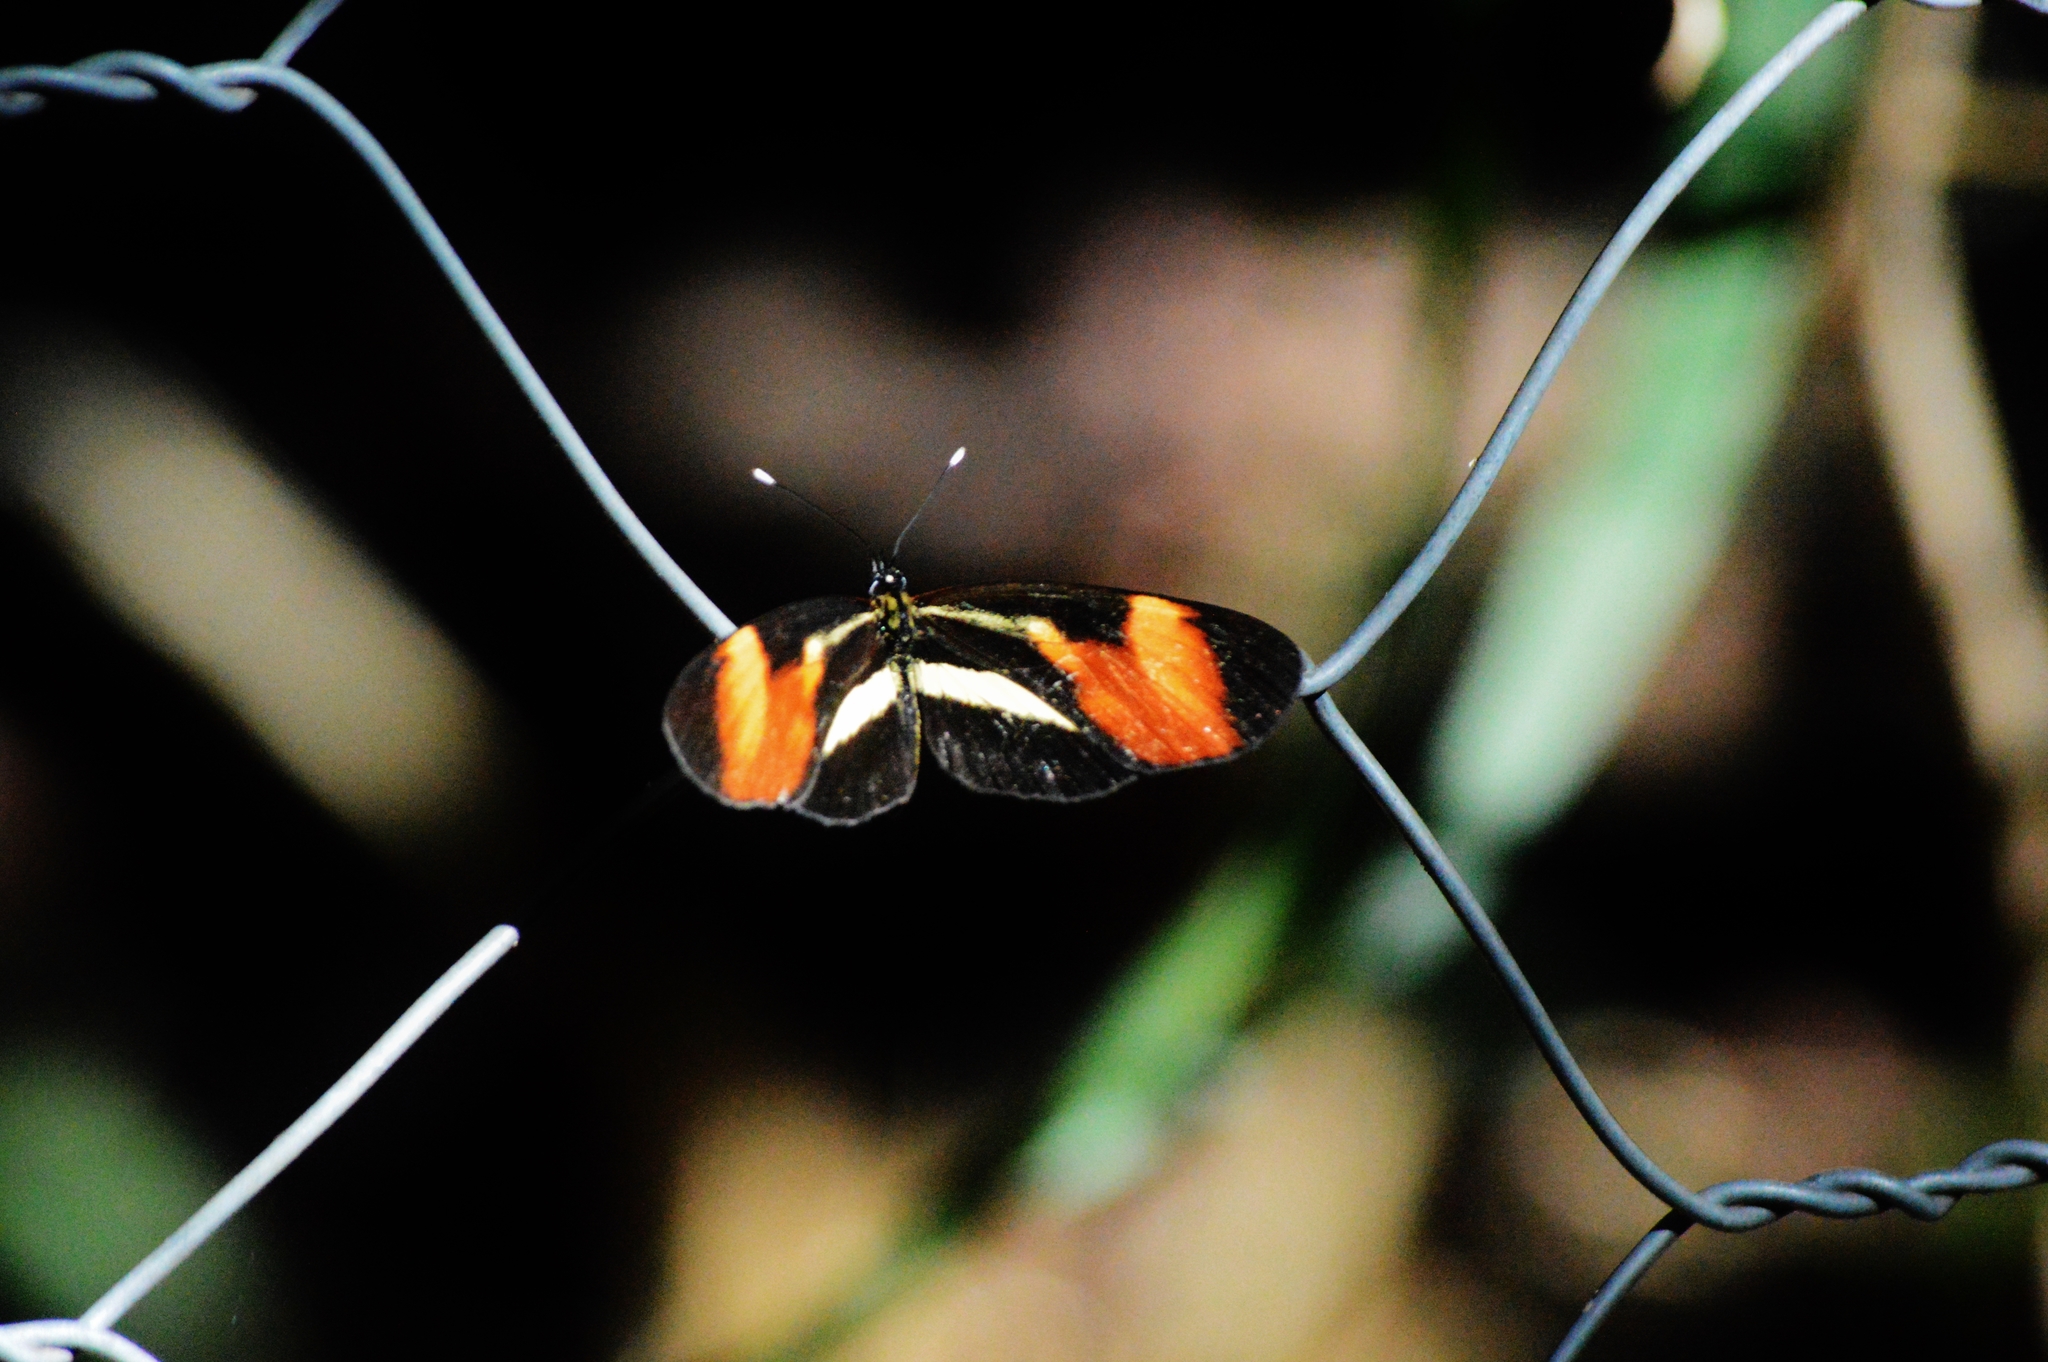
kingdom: Animalia
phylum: Arthropoda
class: Insecta
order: Lepidoptera
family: Nymphalidae
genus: Eresia
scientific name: Eresia lansdorfi
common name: Lansdorf's crescent
